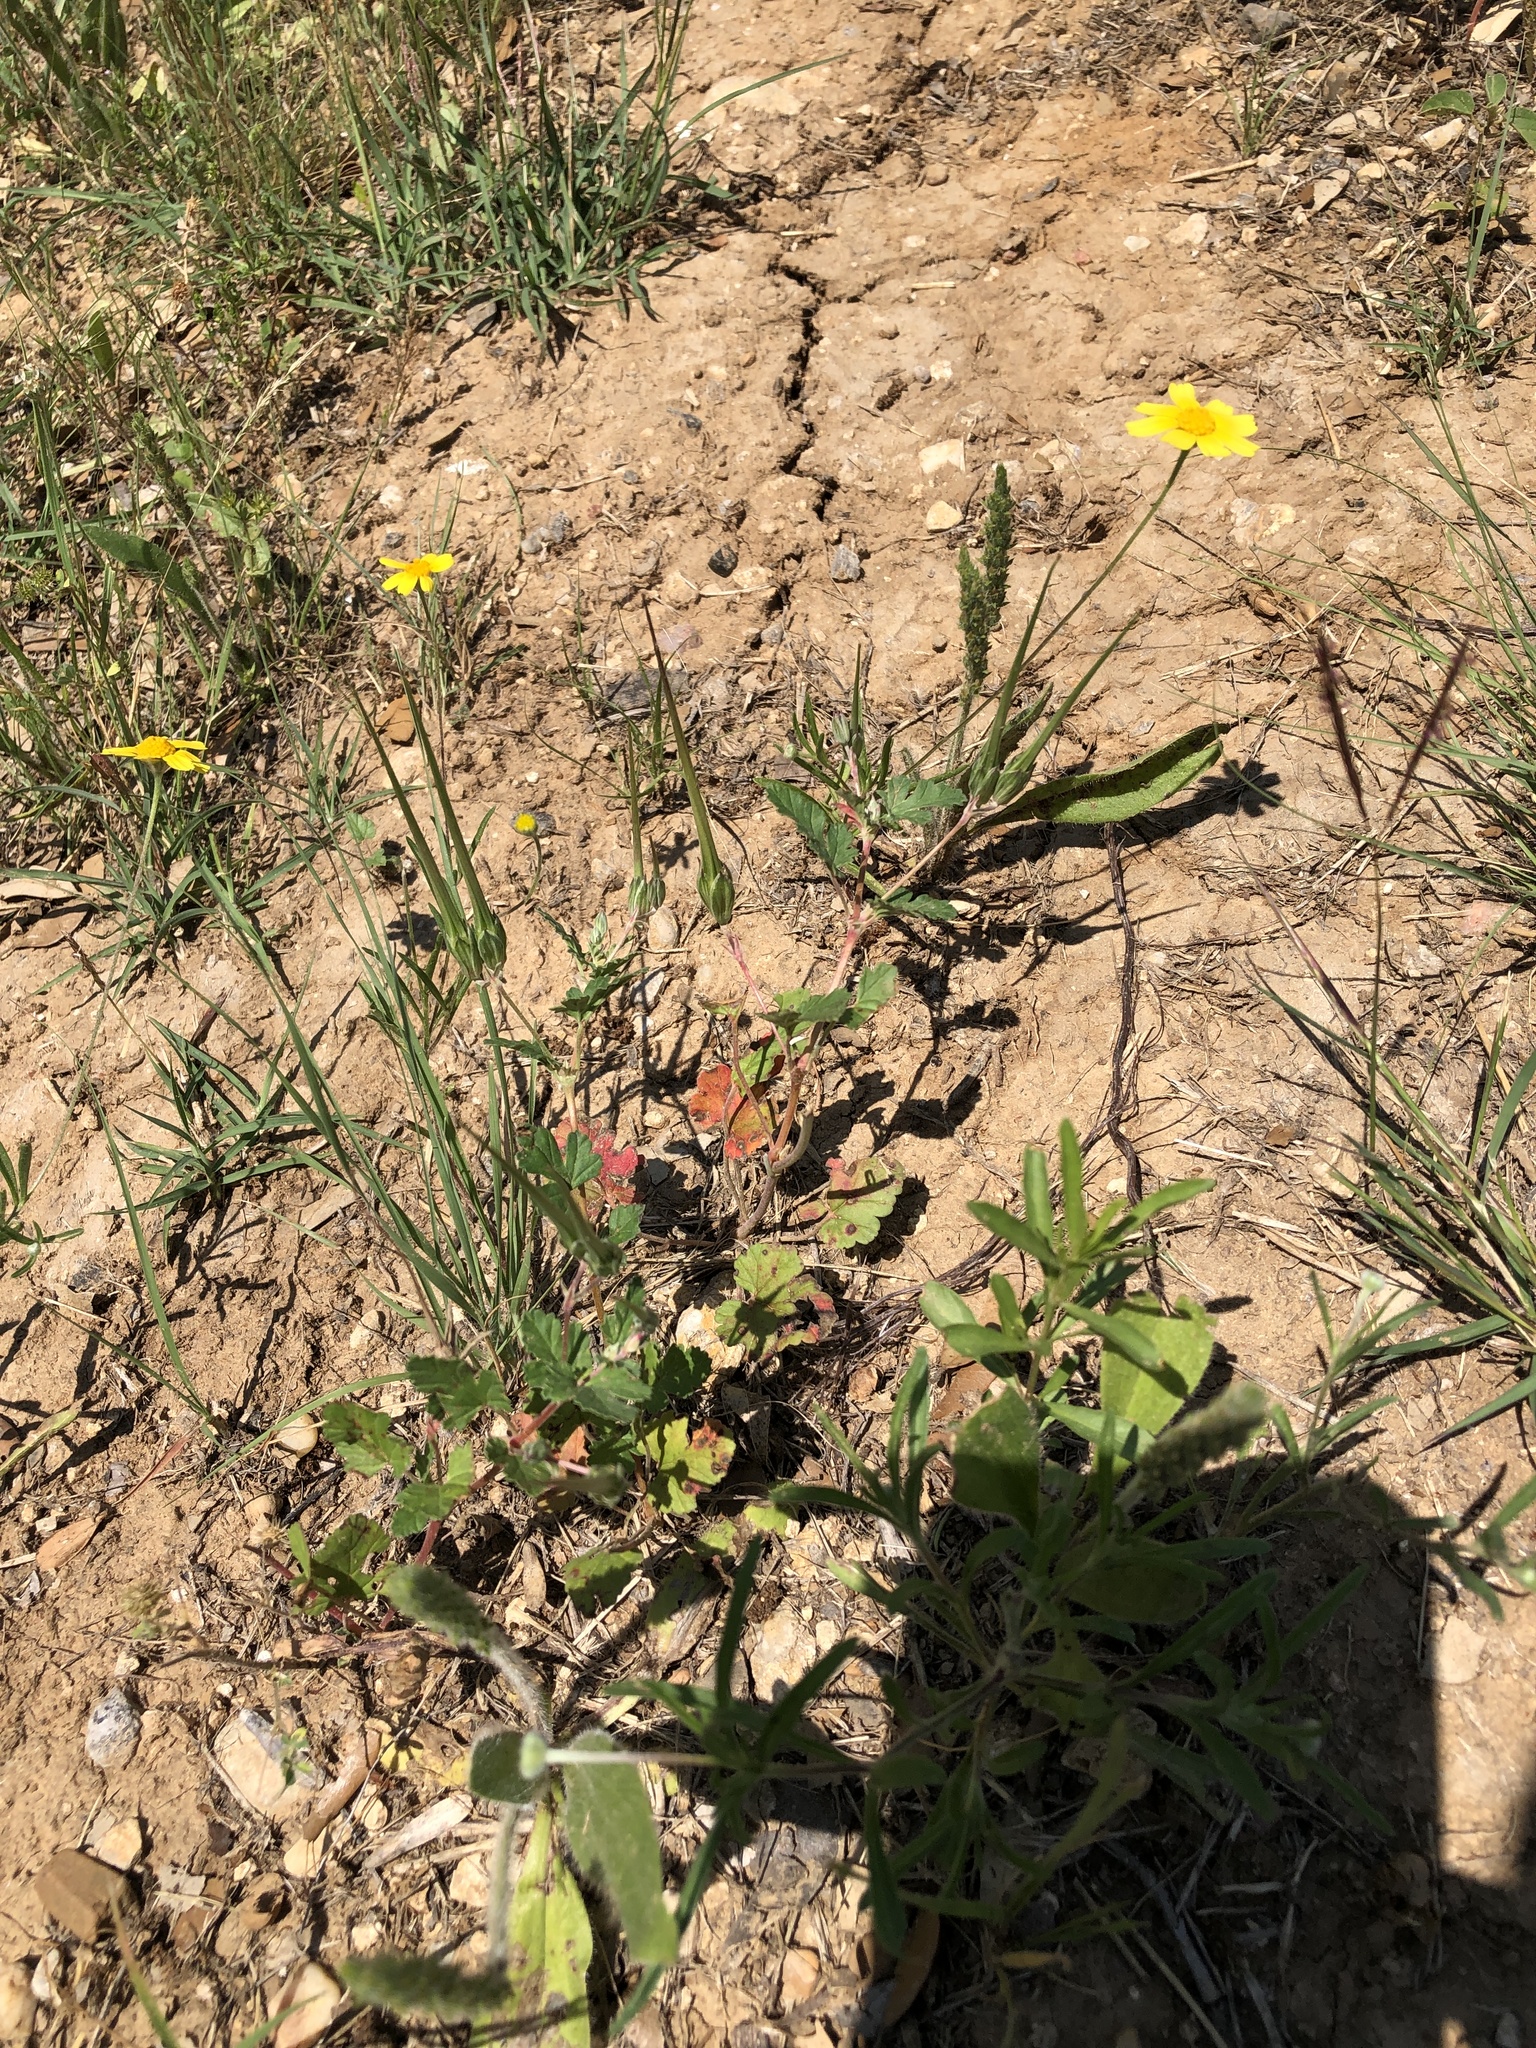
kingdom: Plantae
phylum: Tracheophyta
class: Magnoliopsida
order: Geraniales
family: Geraniaceae
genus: Erodium
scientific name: Erodium texanum
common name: Texas stork's-bill
